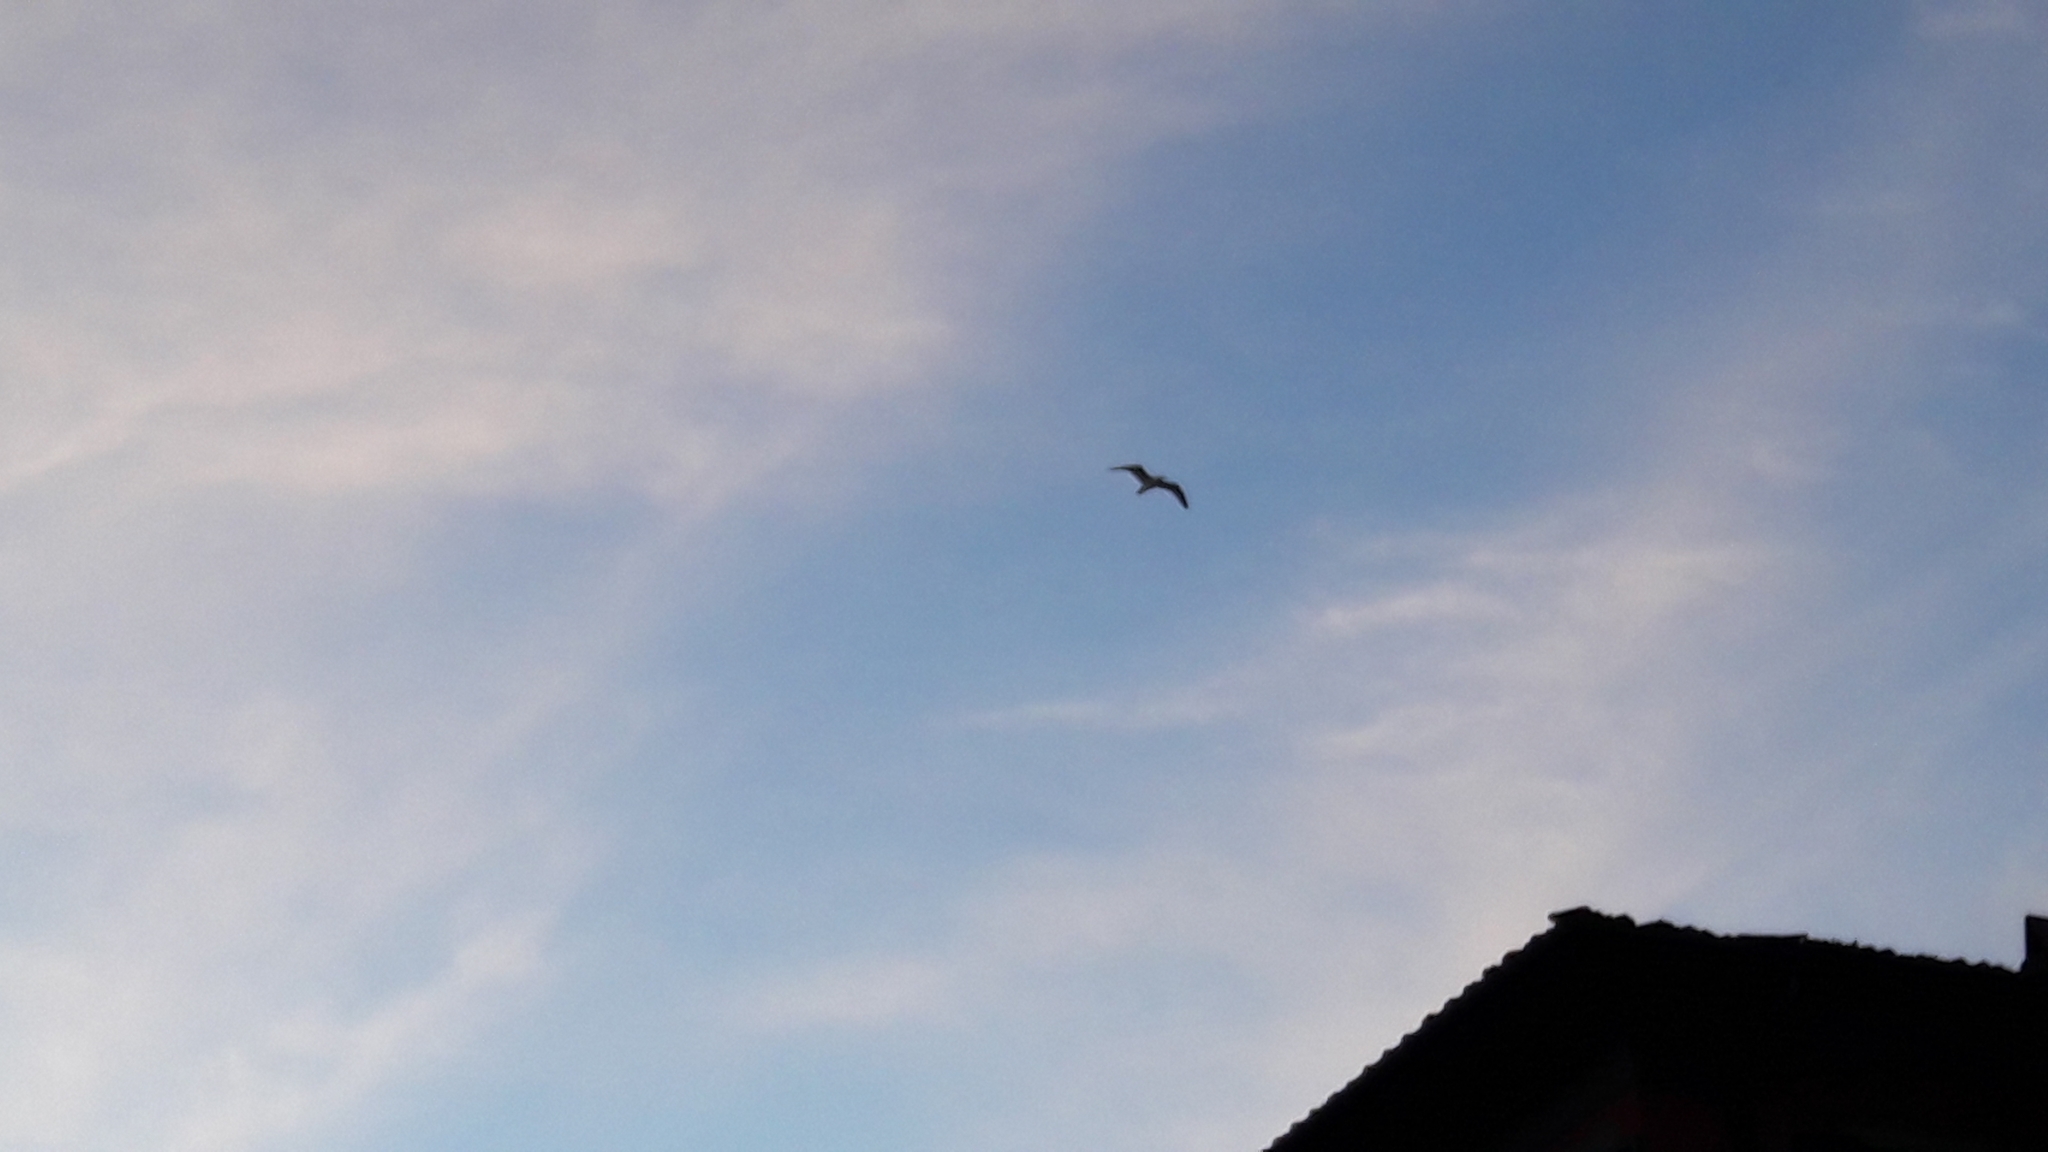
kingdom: Animalia
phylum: Chordata
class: Aves
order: Charadriiformes
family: Laridae
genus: Larus
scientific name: Larus michahellis
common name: Yellow-legged gull
